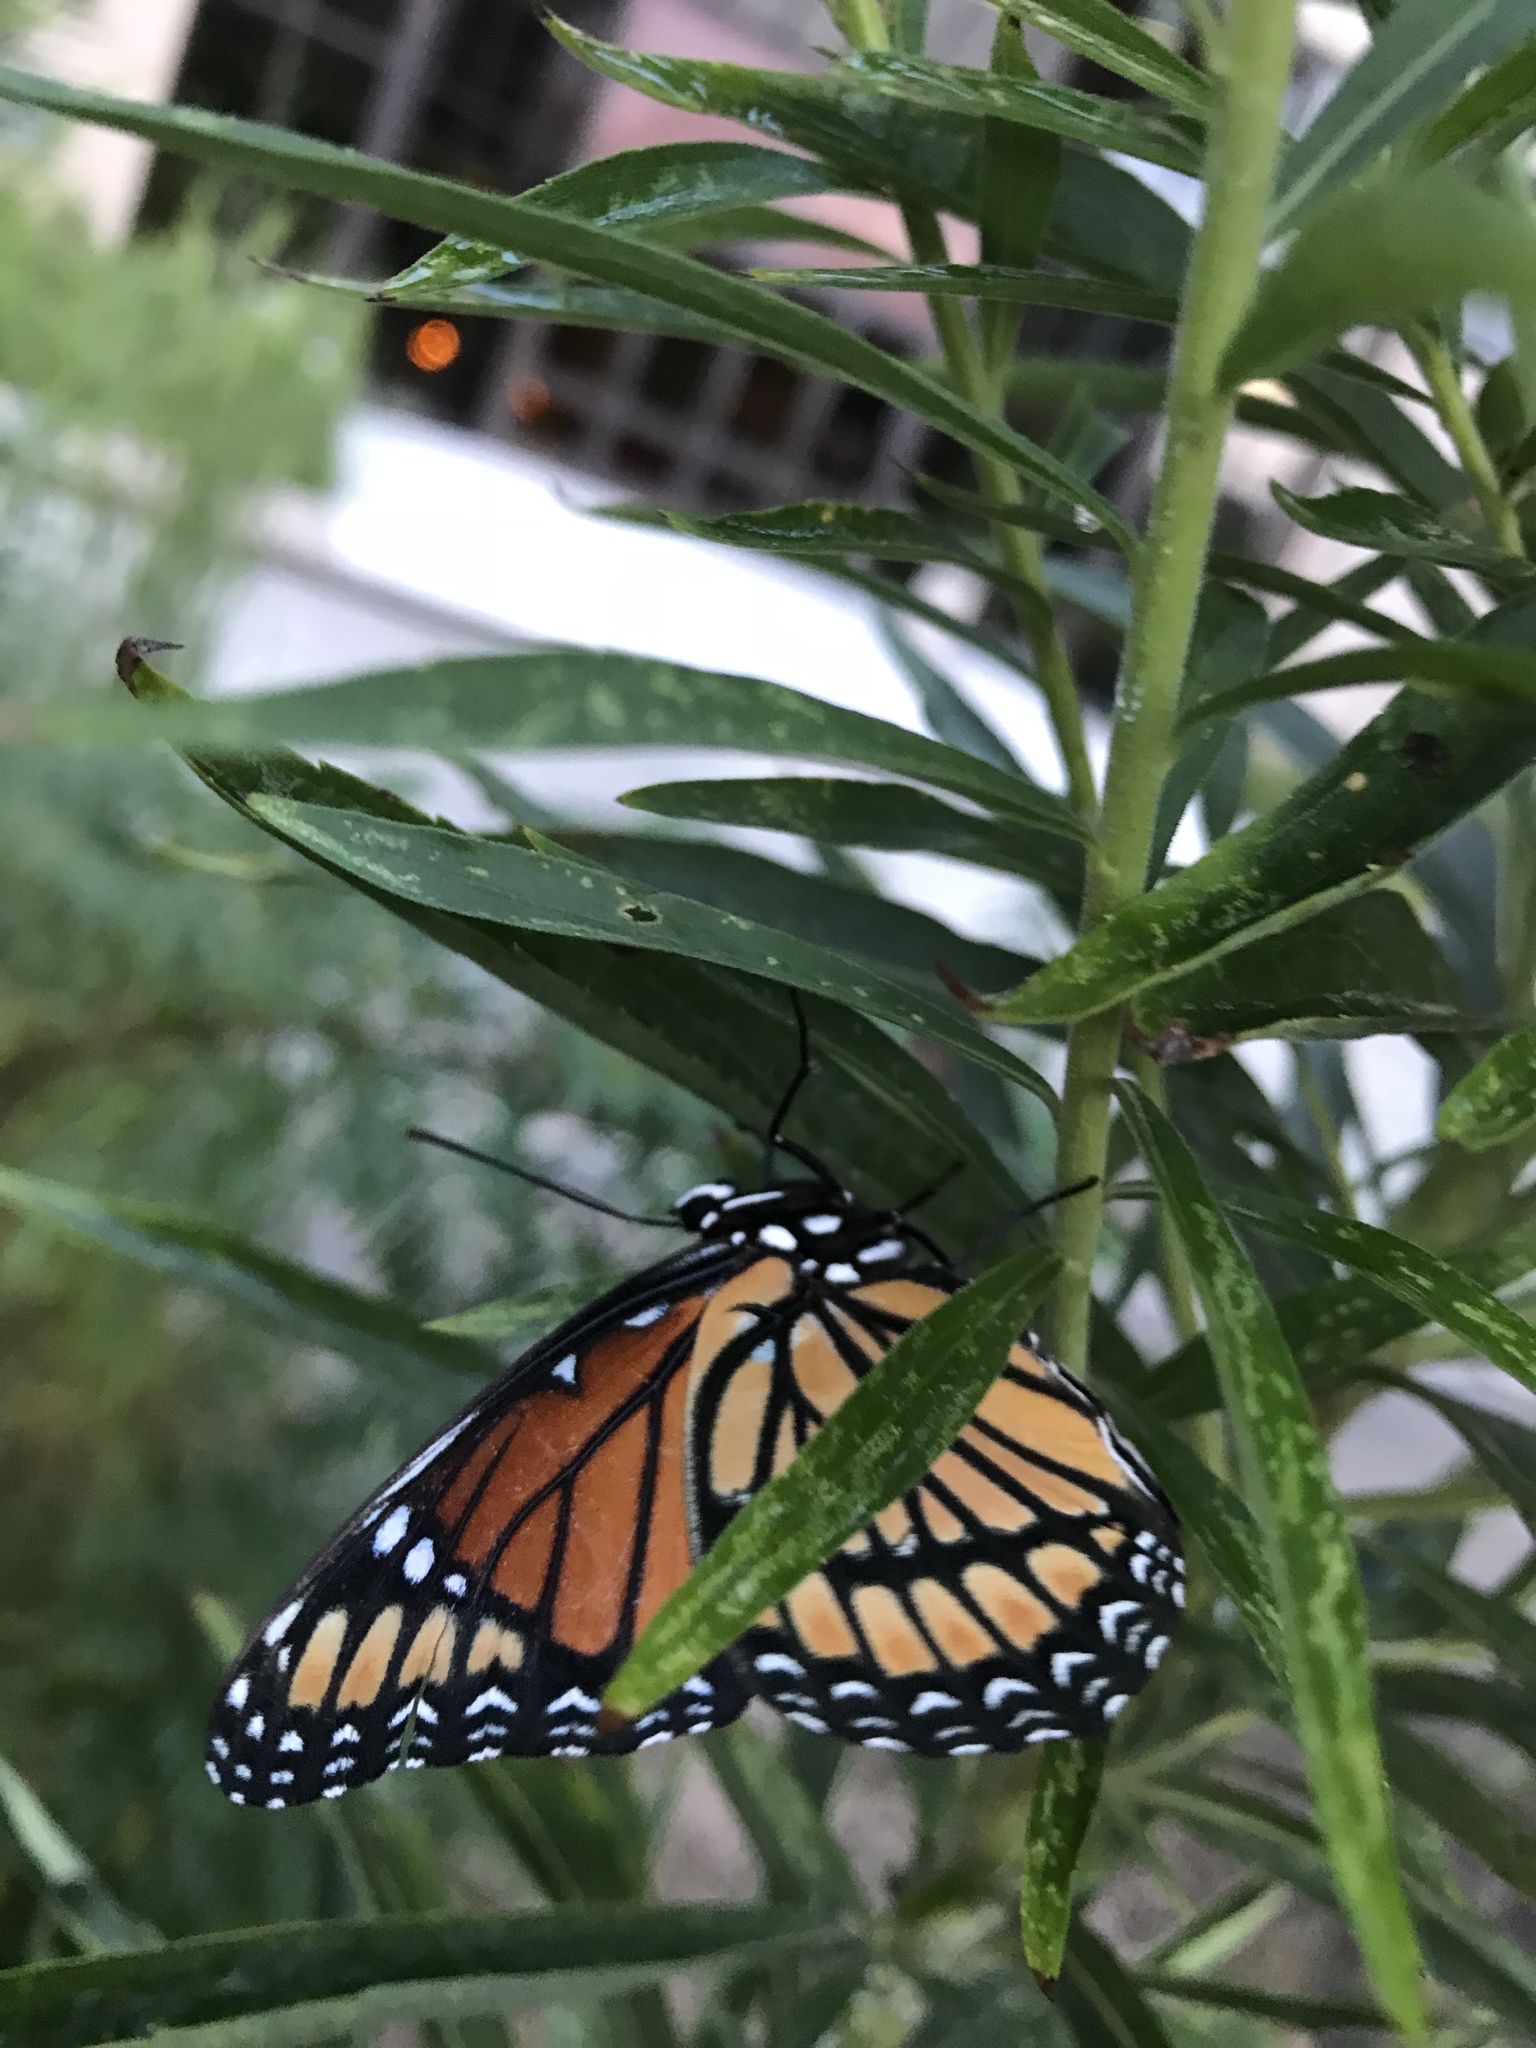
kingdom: Animalia
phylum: Arthropoda
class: Insecta
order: Lepidoptera
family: Nymphalidae
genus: Limenitis
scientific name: Limenitis archippus
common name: Viceroy
